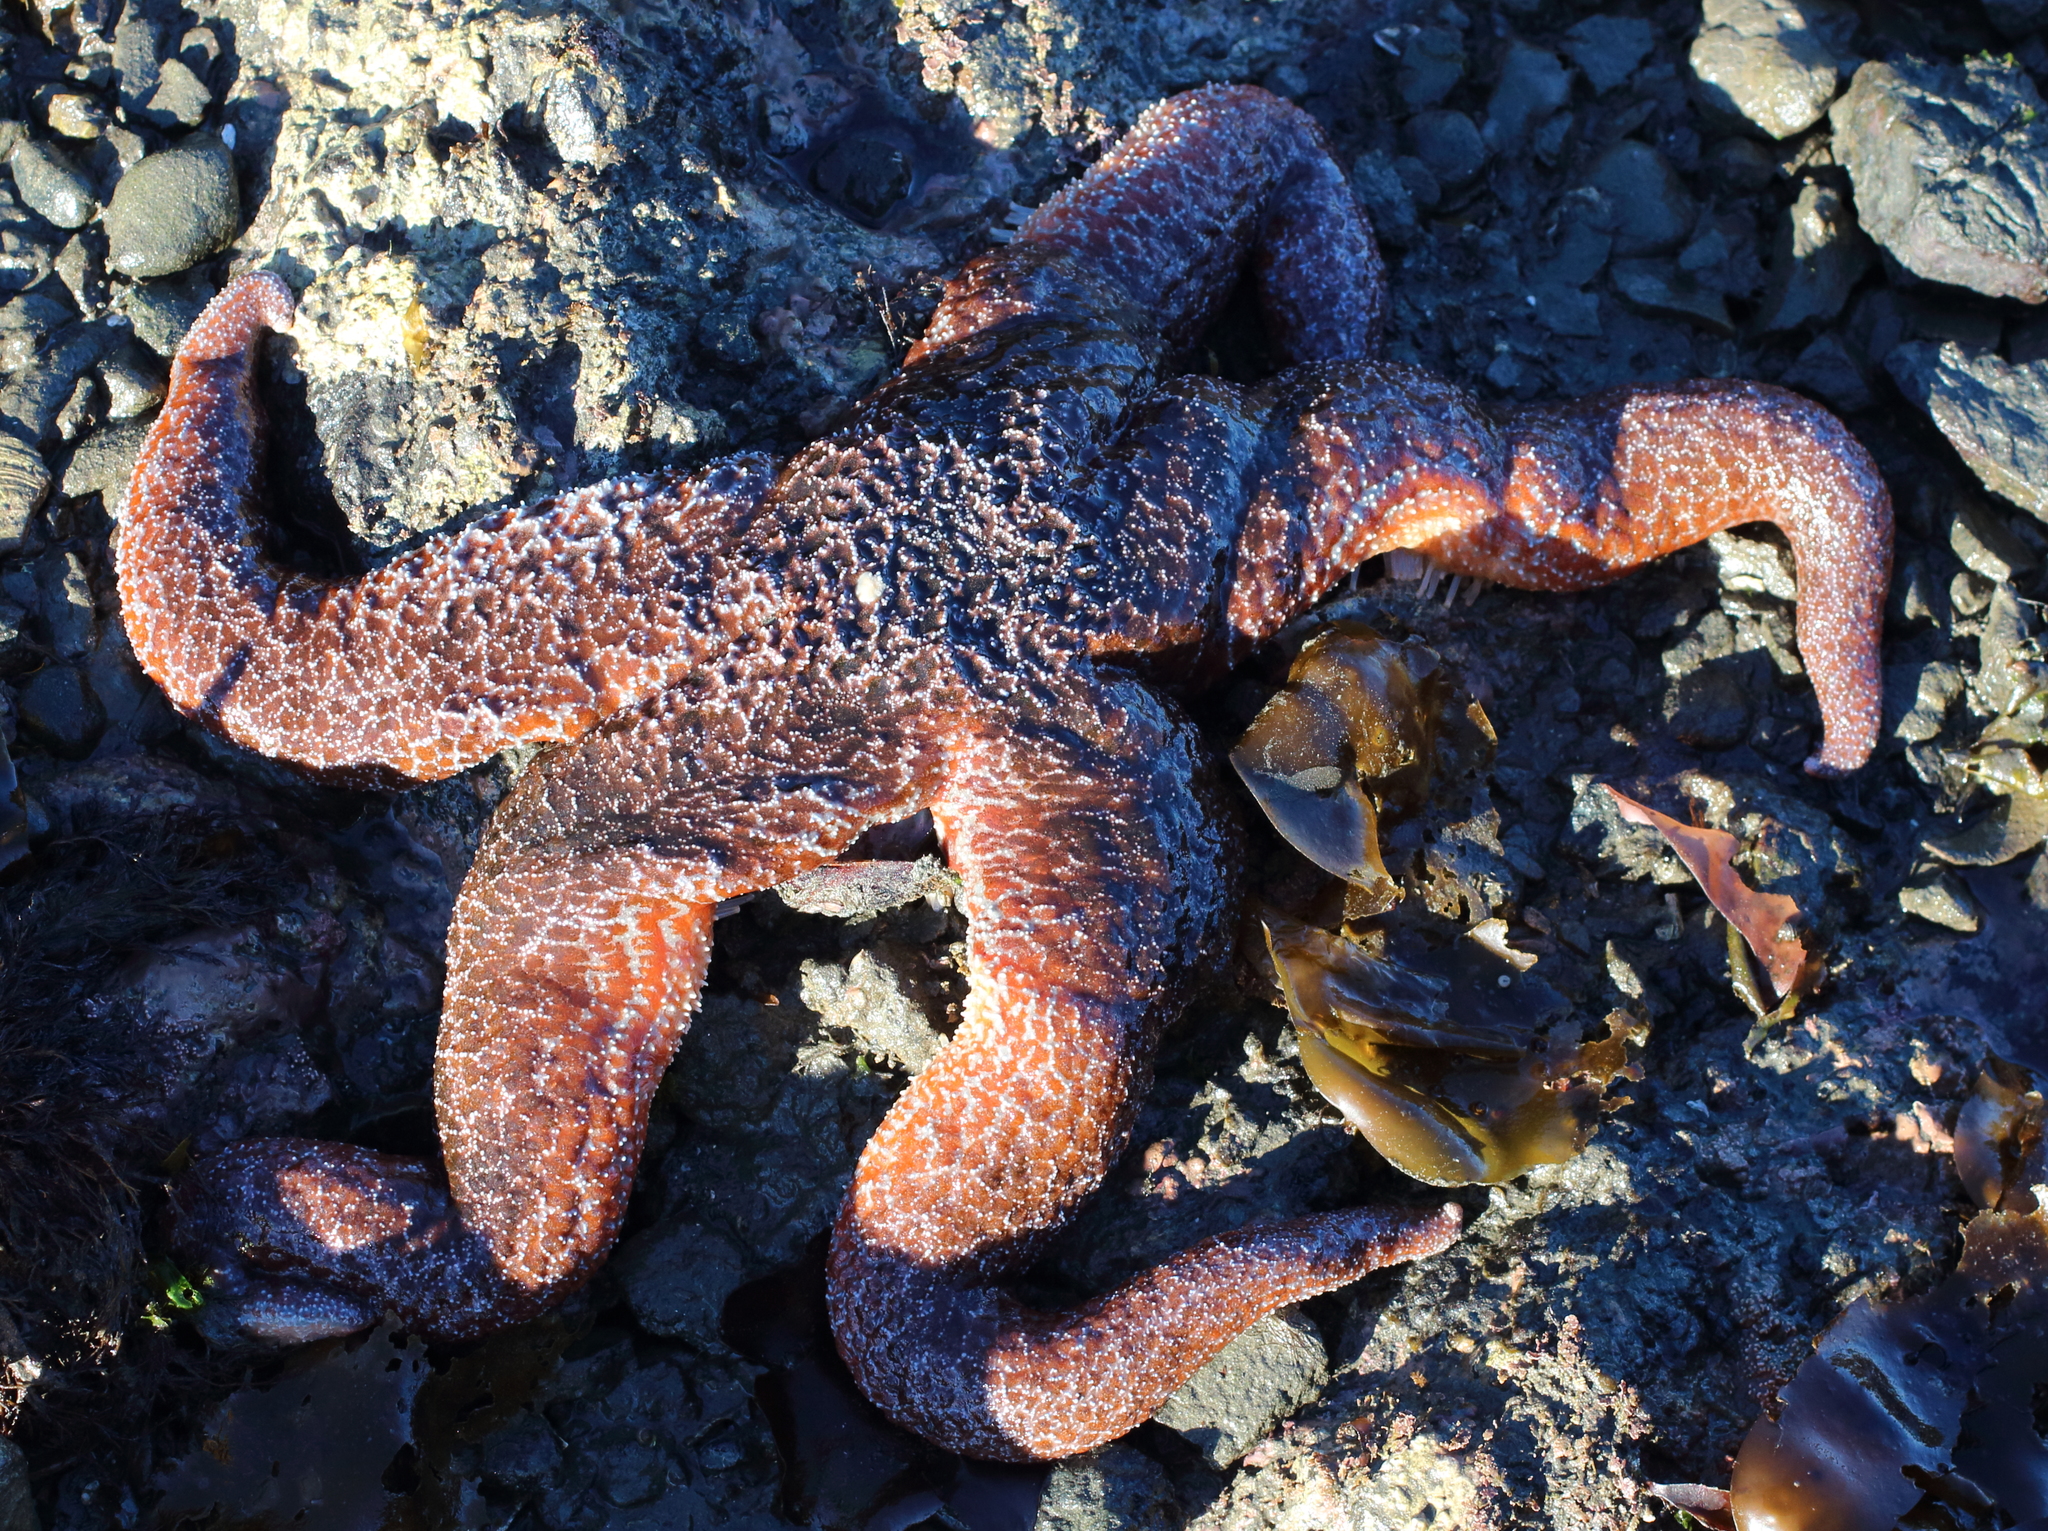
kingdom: Animalia
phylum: Echinodermata
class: Asteroidea
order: Forcipulatida
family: Asteriidae
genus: Evasterias
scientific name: Evasterias troschelii
